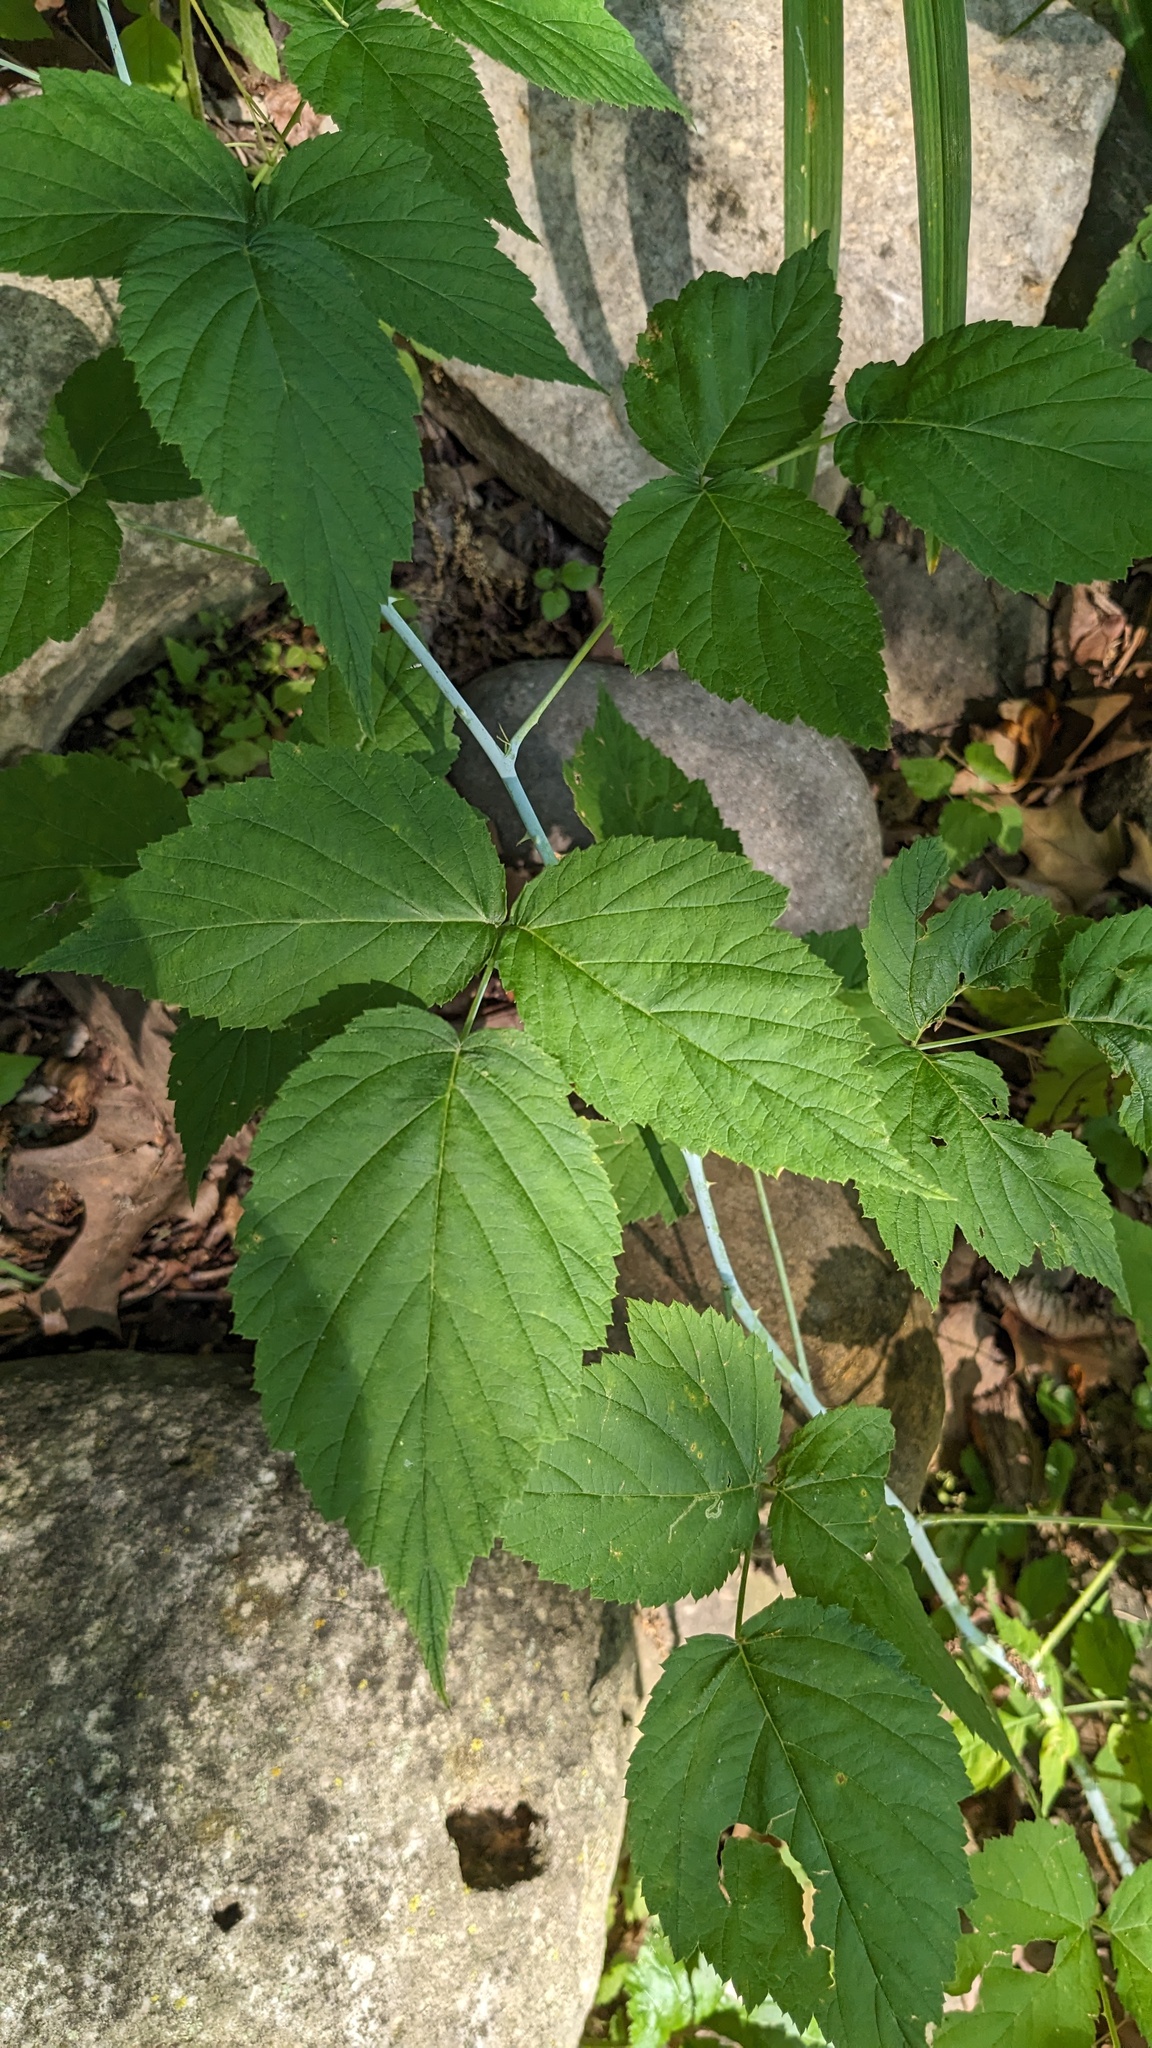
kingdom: Plantae
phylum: Tracheophyta
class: Magnoliopsida
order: Rosales
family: Rosaceae
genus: Rubus
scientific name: Rubus occidentalis
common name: Black raspberry
